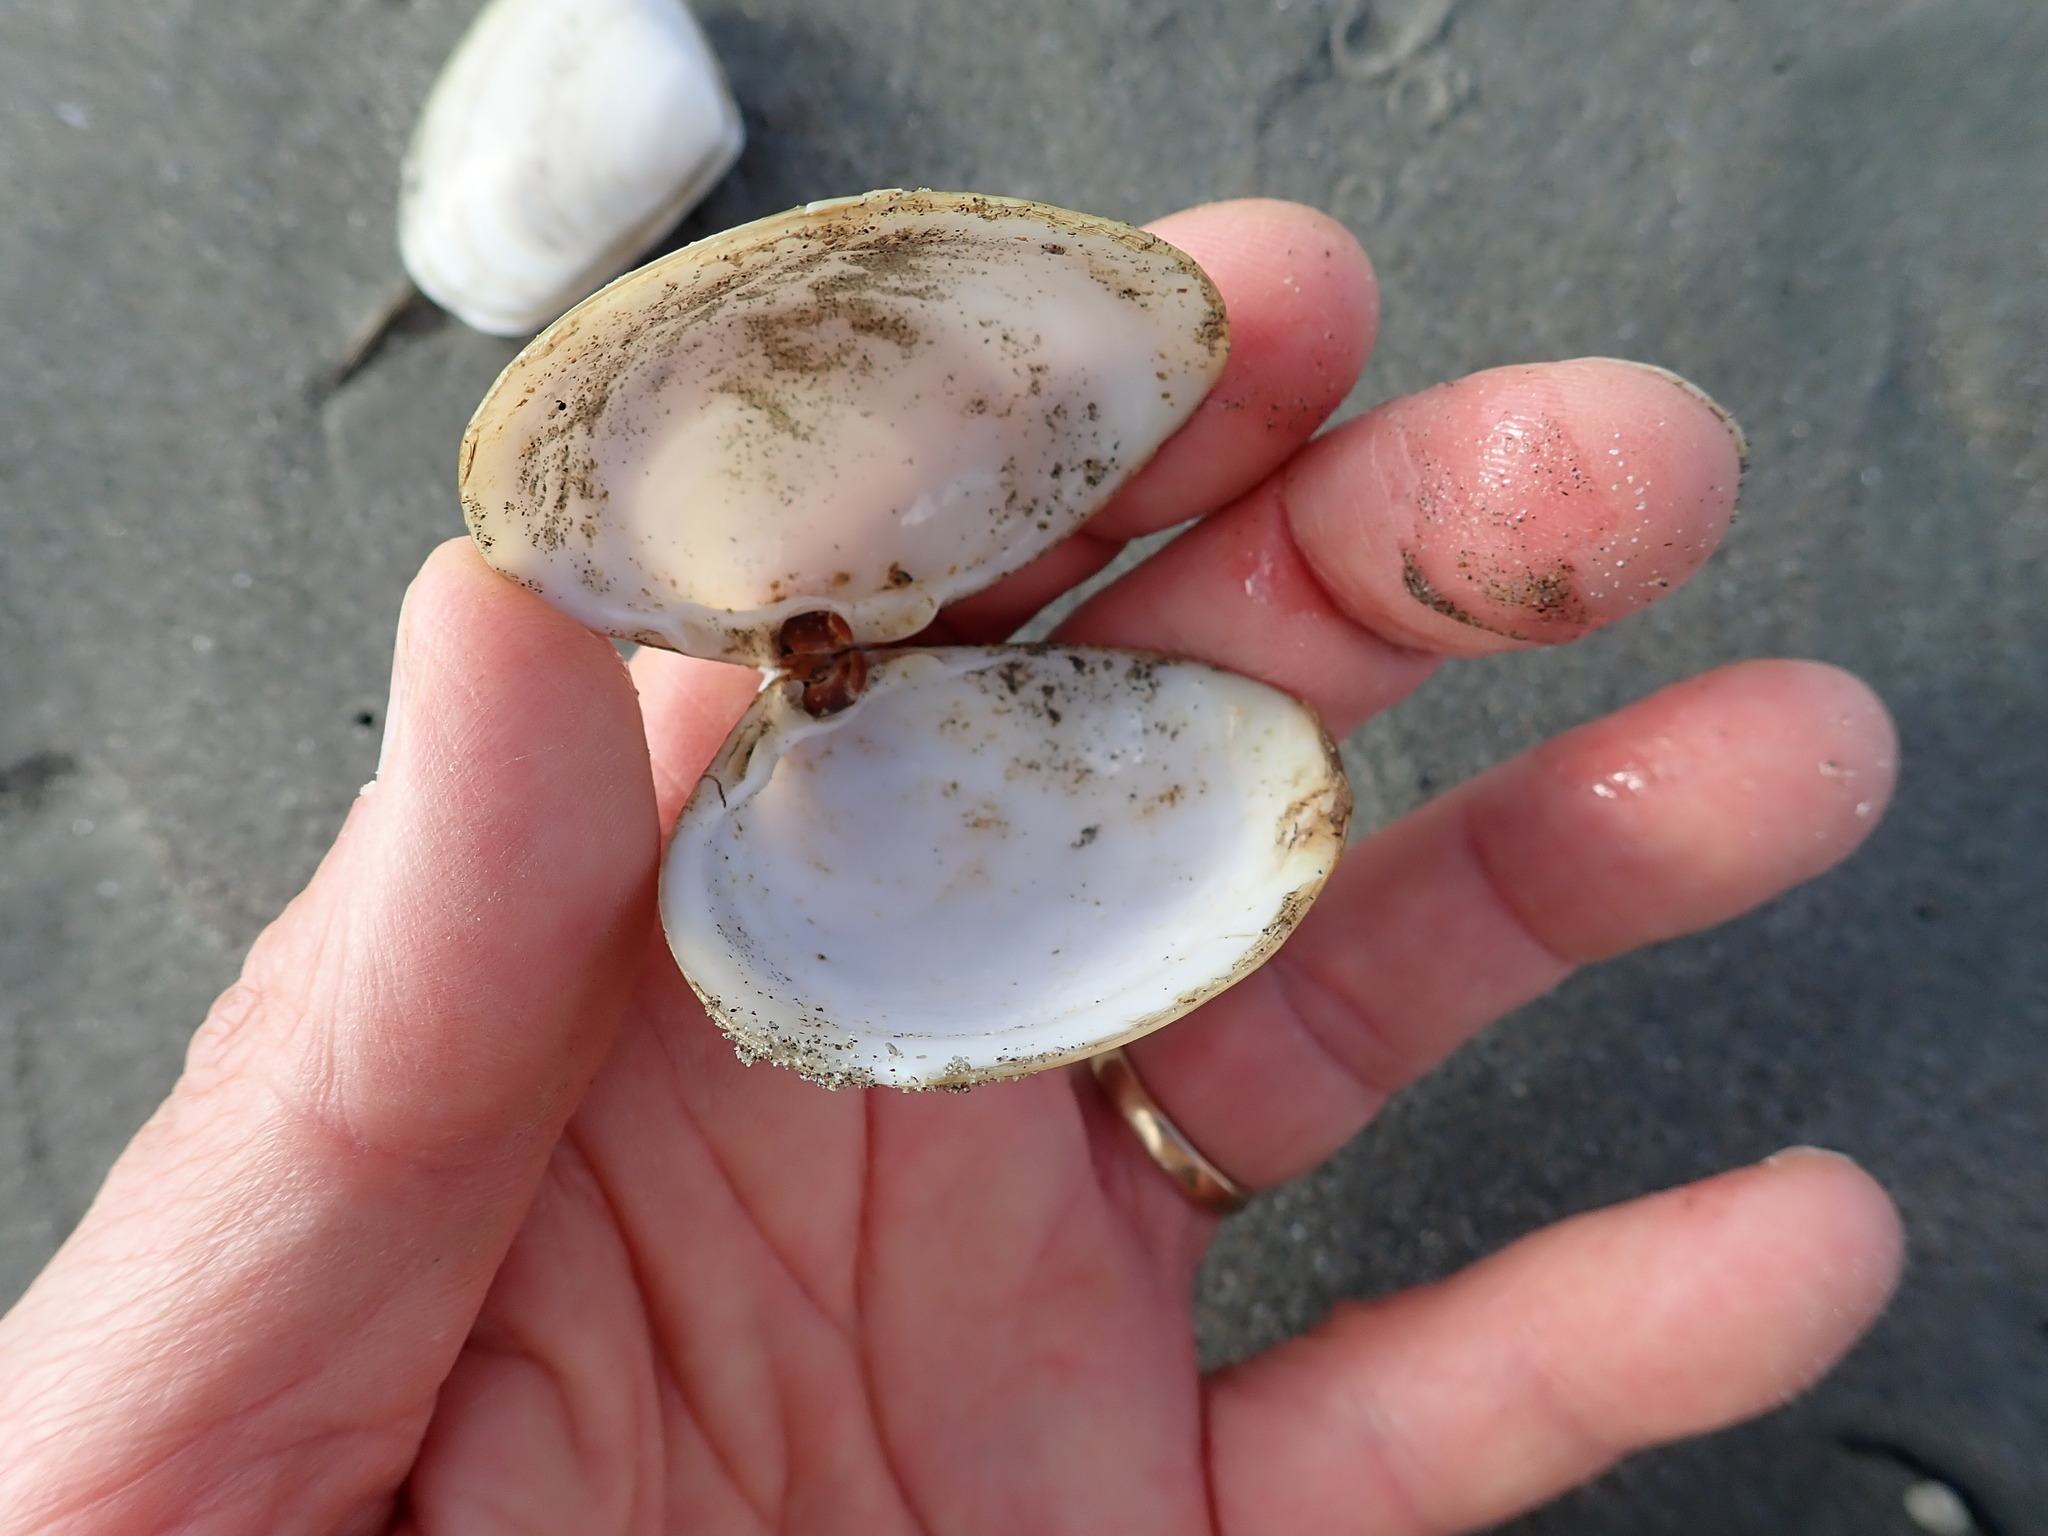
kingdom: Animalia
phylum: Mollusca
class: Bivalvia
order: Venerida
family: Mactridae
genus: Spisula
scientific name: Spisula discors
